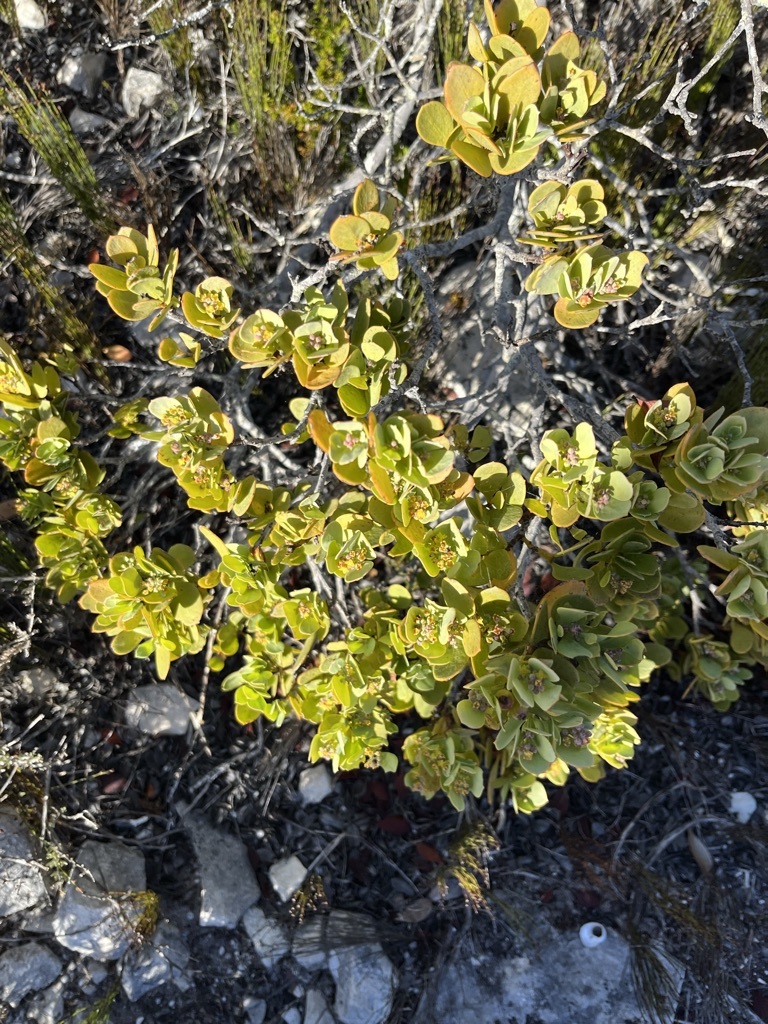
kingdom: Plantae
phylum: Tracheophyta
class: Magnoliopsida
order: Santalales
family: Santalaceae
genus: Osyris
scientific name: Osyris compressa
